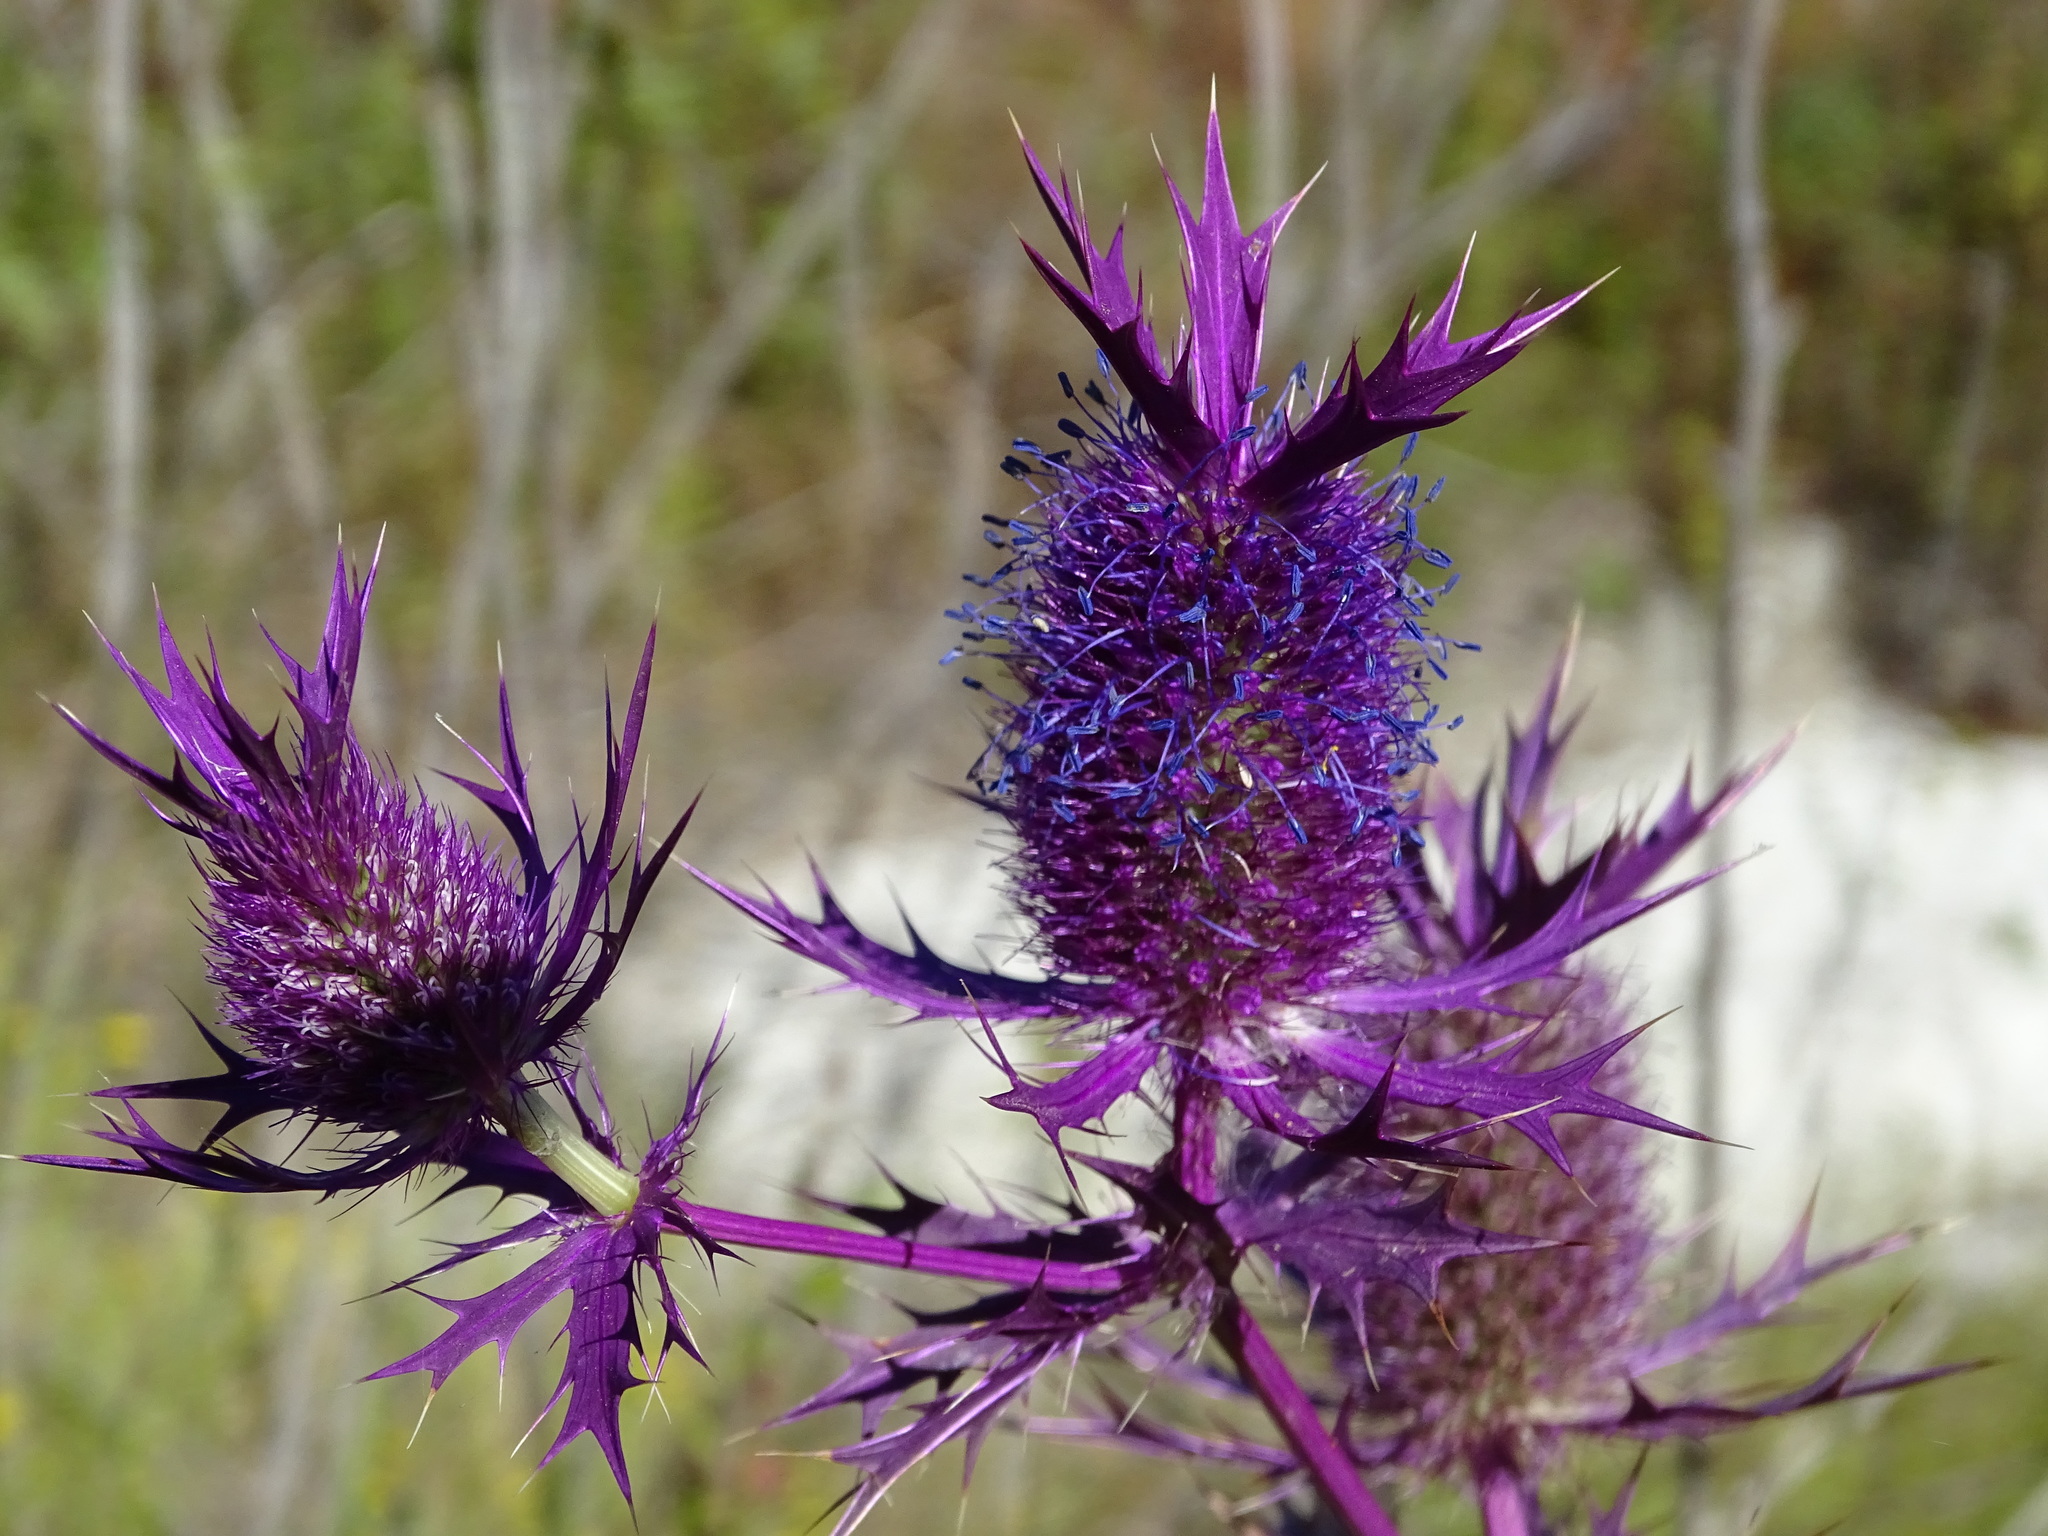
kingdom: Plantae
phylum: Tracheophyta
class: Magnoliopsida
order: Apiales
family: Apiaceae
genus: Eryngium
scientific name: Eryngium leavenworthii
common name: Leavenworth's eryngo
